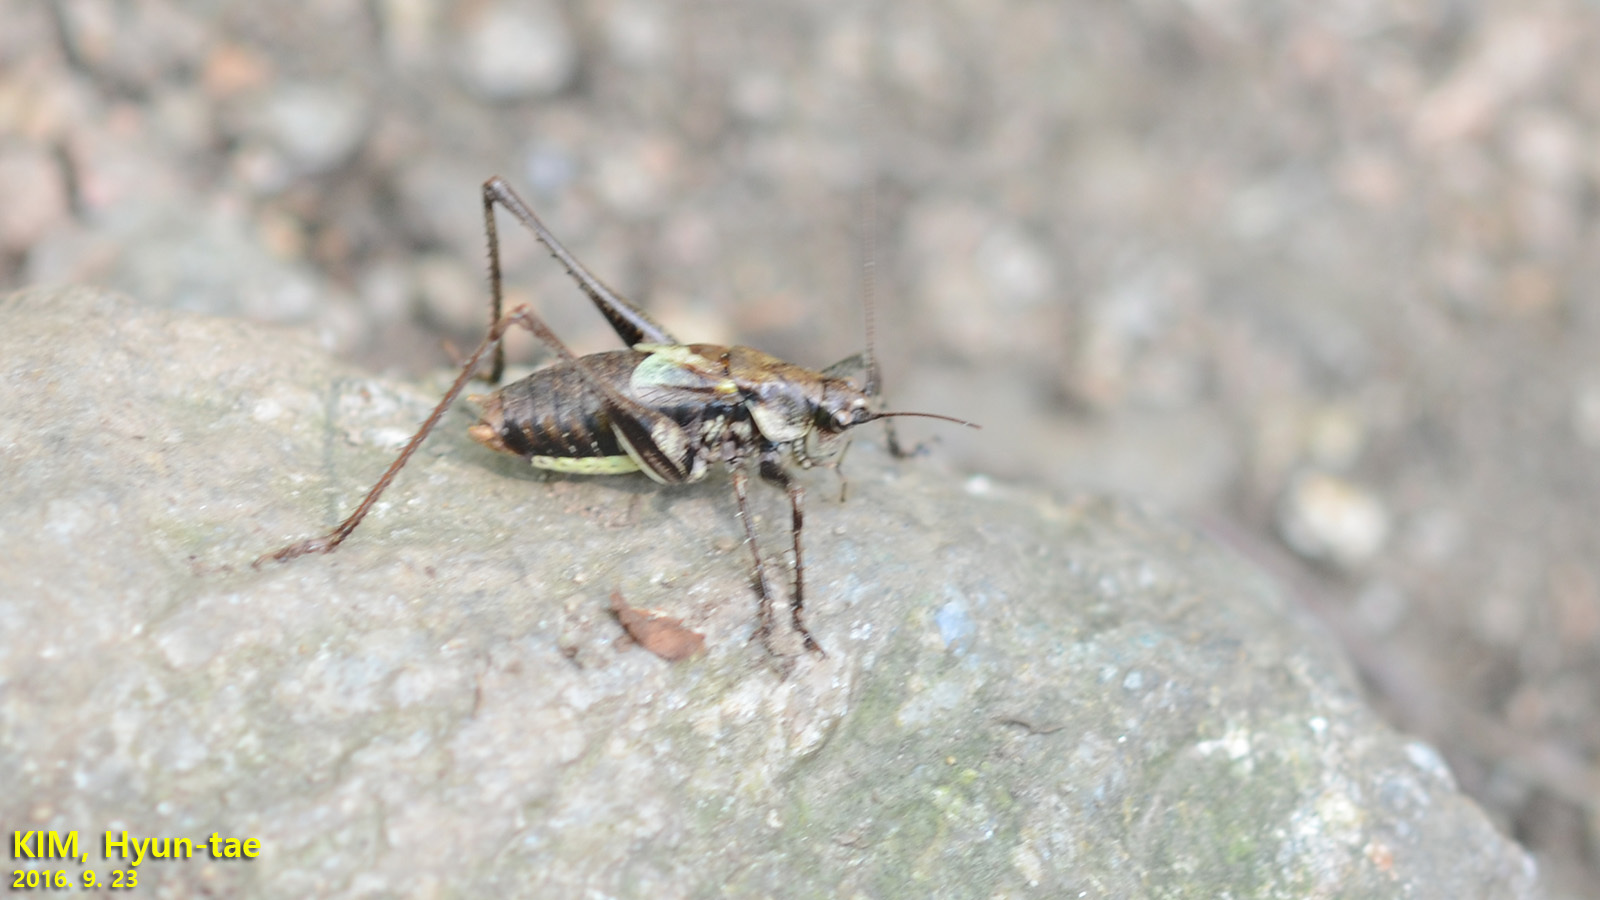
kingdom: Animalia
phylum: Arthropoda
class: Insecta
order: Orthoptera
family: Tettigoniidae
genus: Paratlanticus
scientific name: Paratlanticus ussuriensis
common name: Ussur brown katydid
